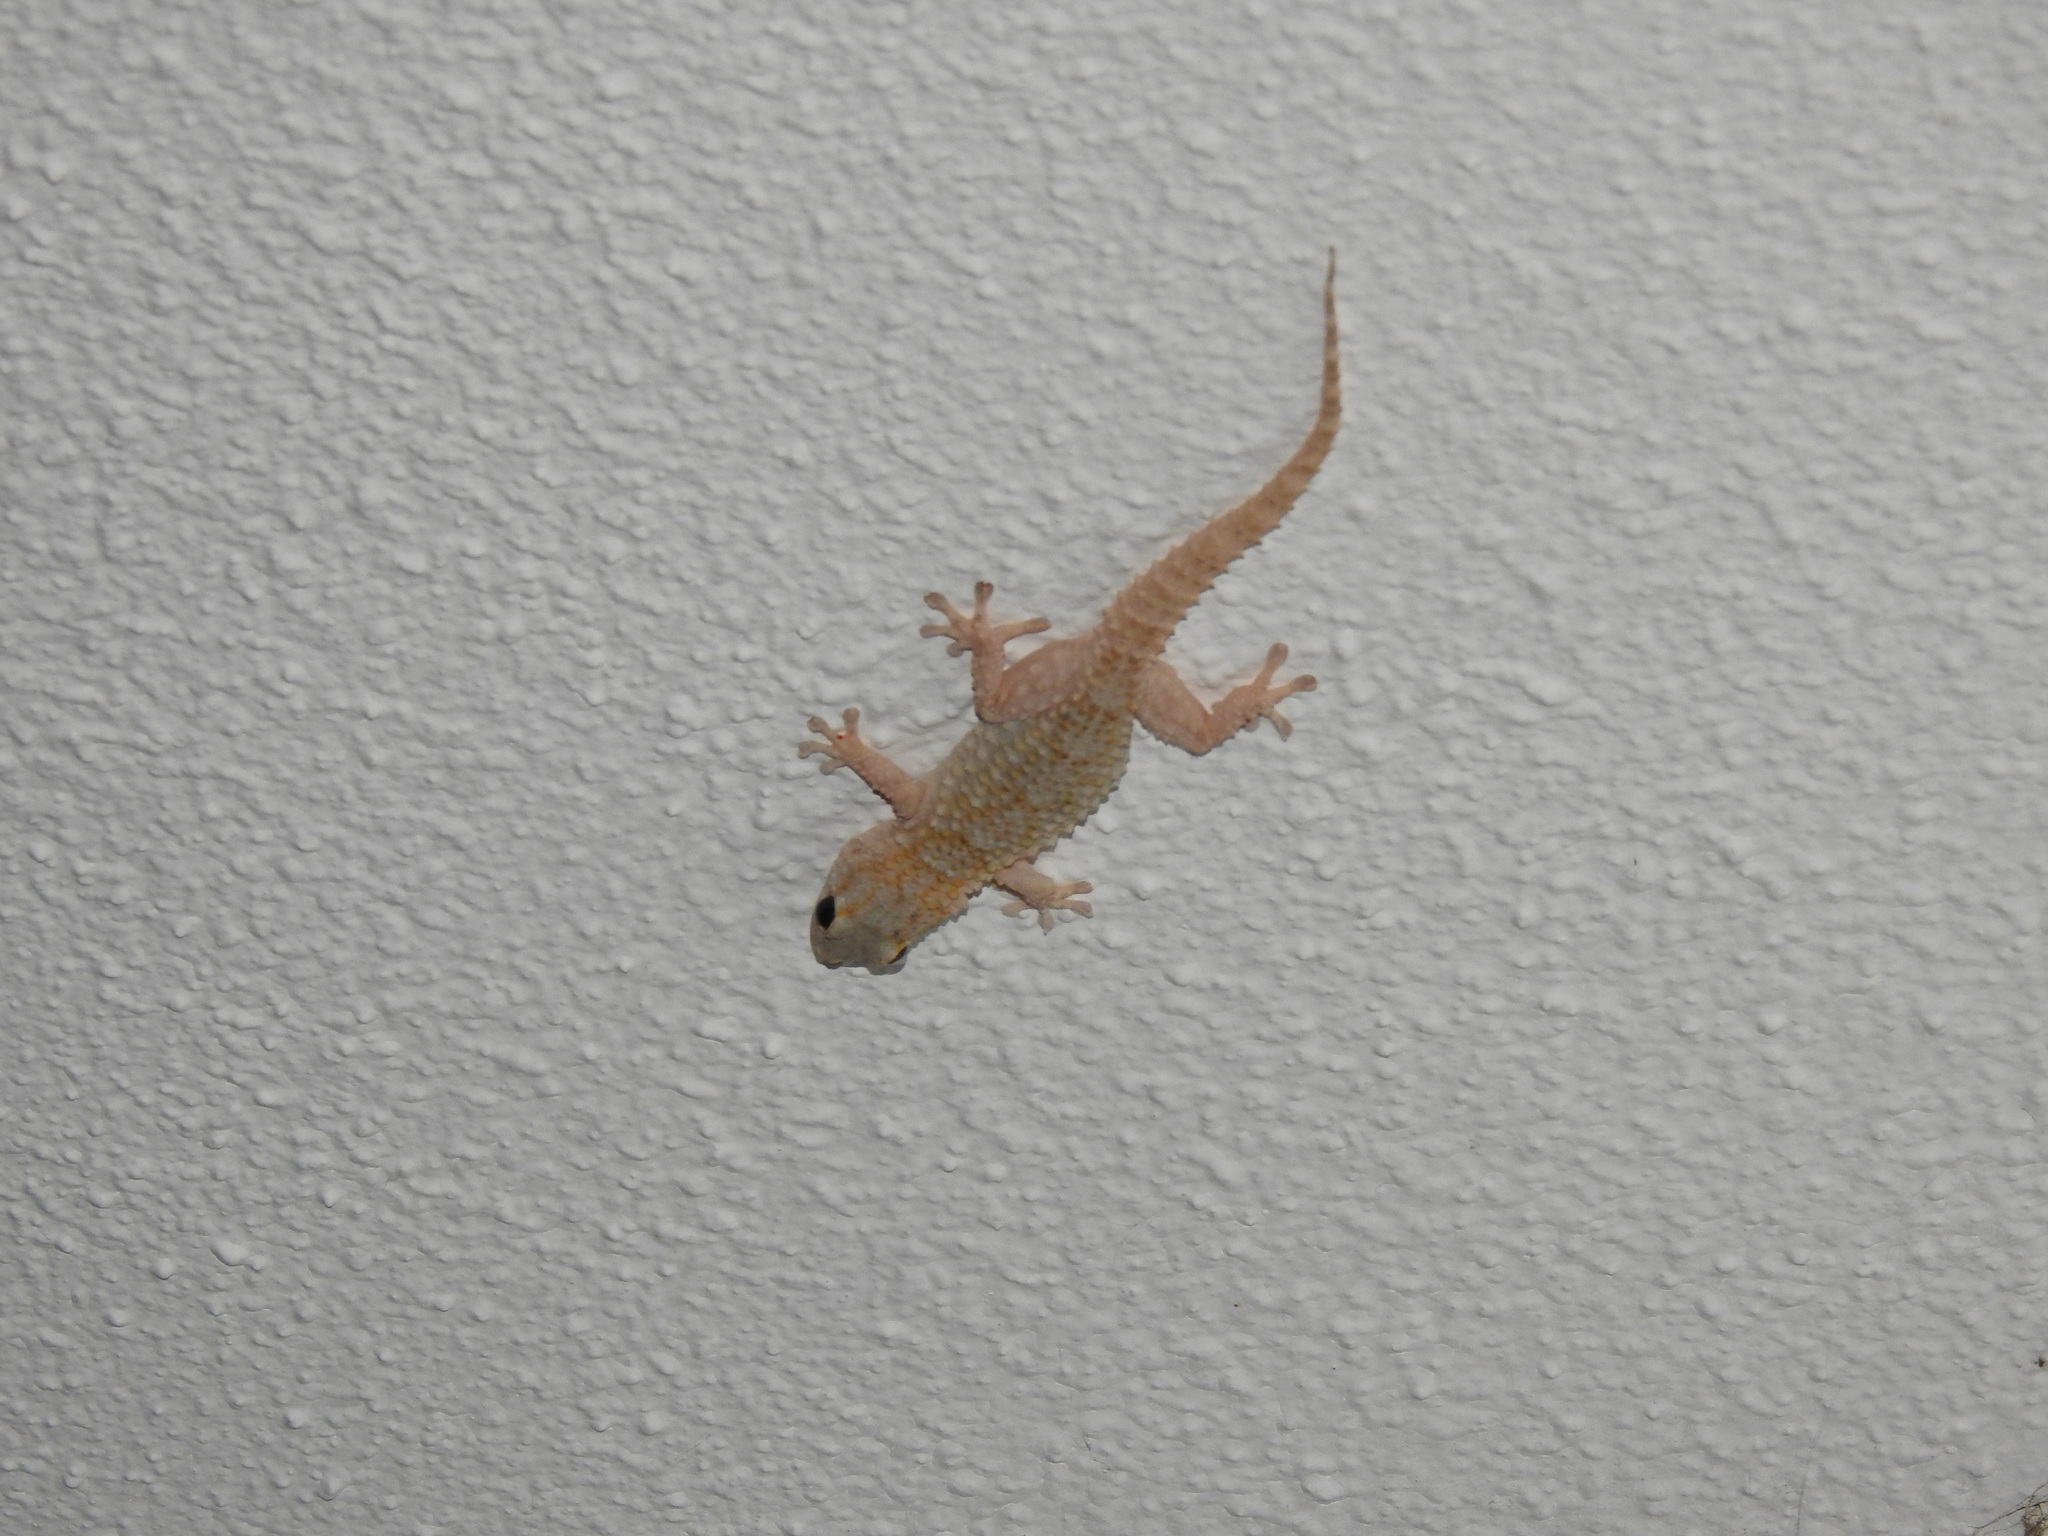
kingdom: Animalia
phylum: Chordata
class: Squamata
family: Phyllodactylidae
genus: Tarentola
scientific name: Tarentola mauritanica
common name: Moorish gecko
